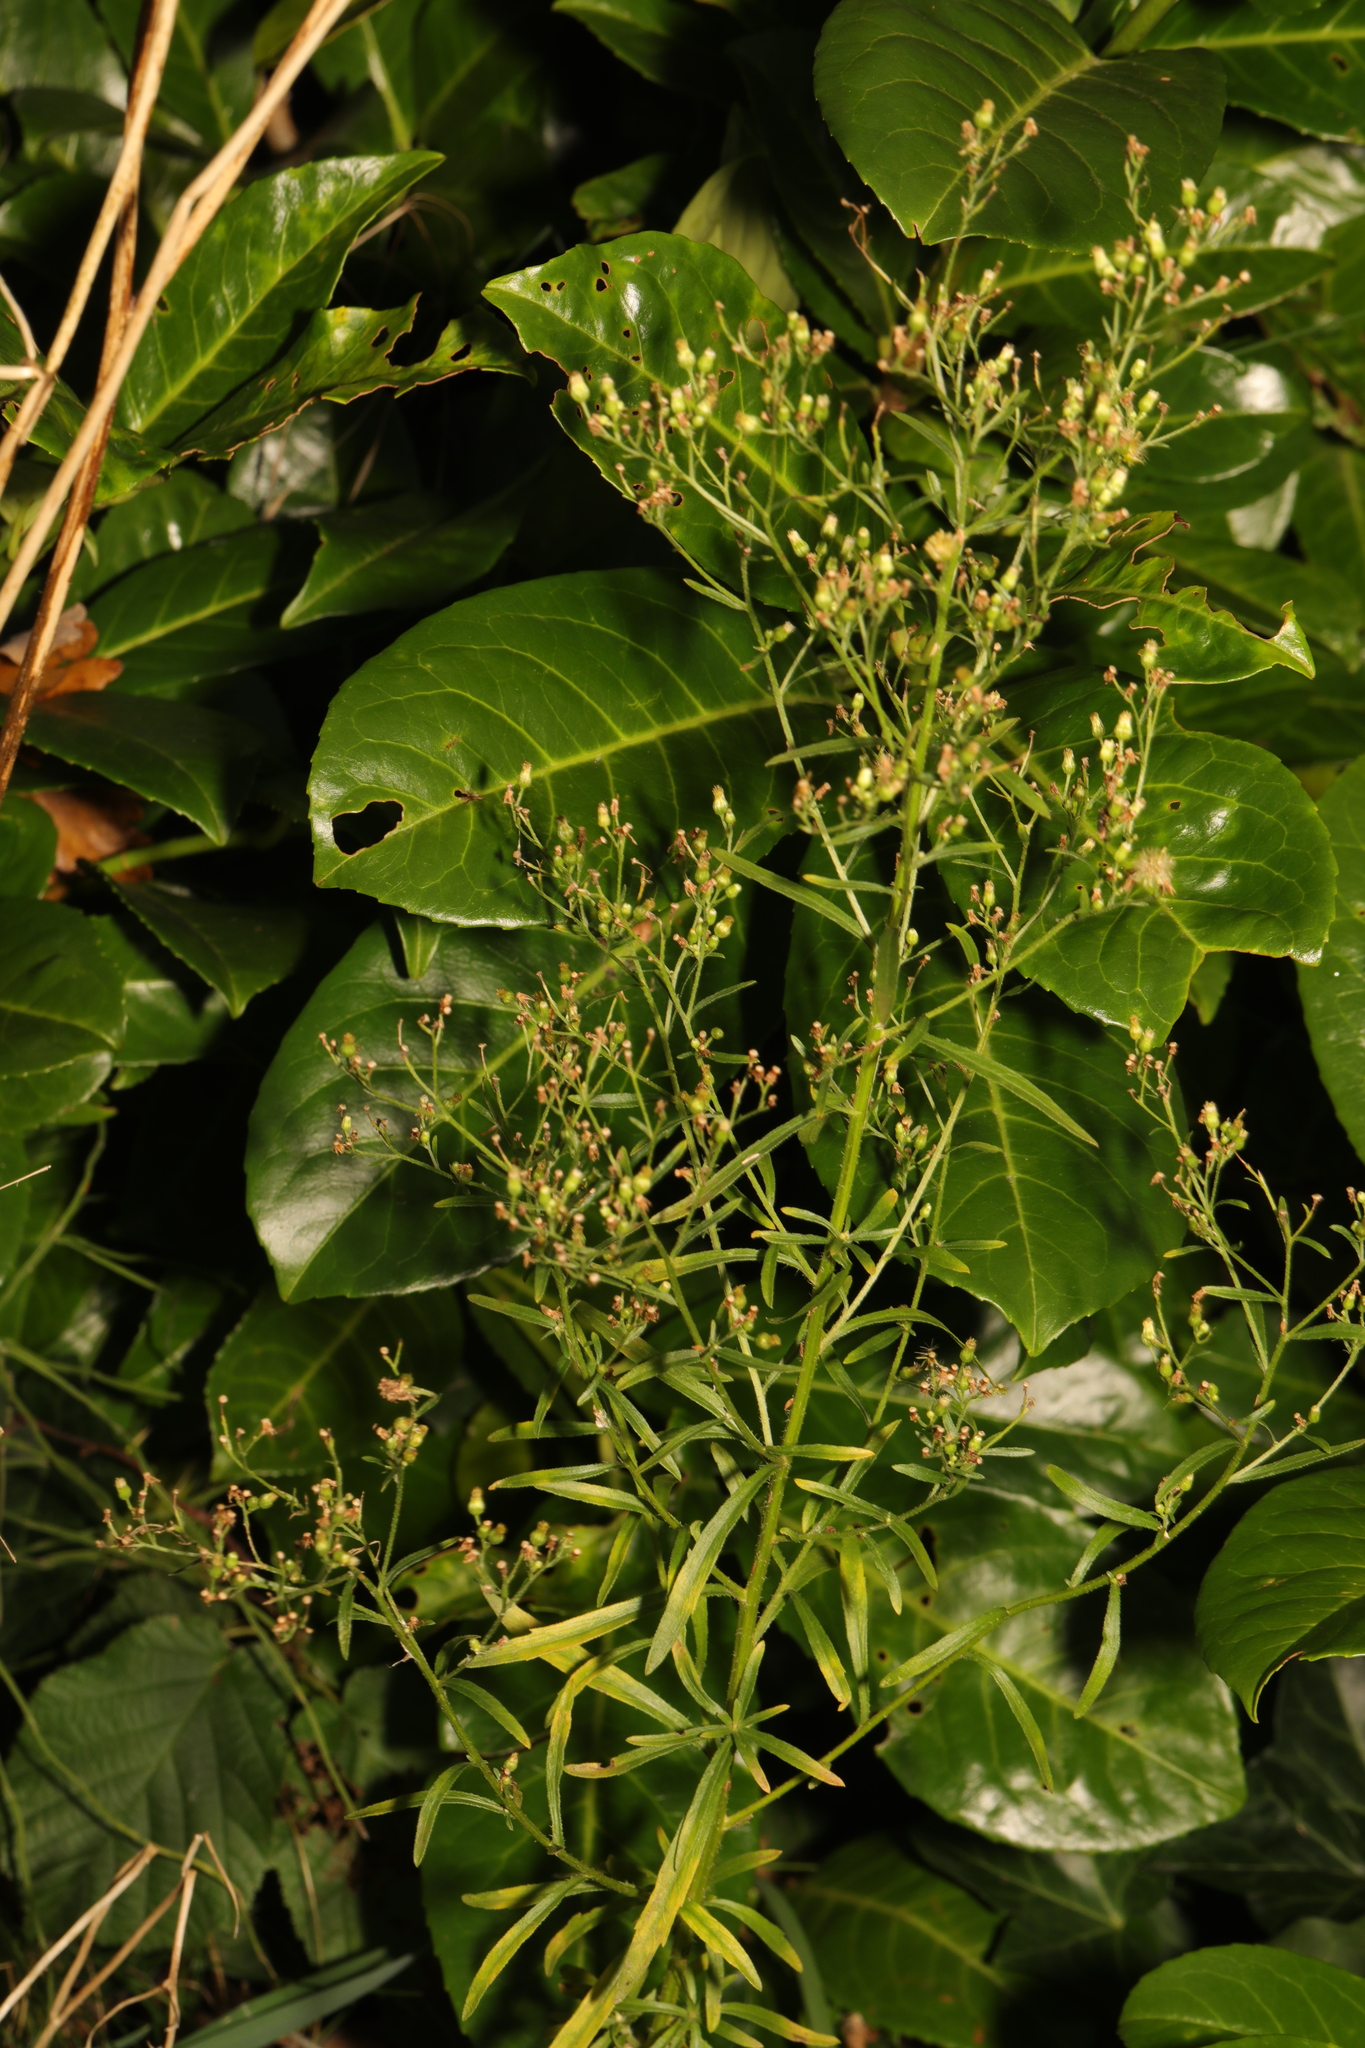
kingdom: Plantae
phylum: Tracheophyta
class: Magnoliopsida
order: Asterales
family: Asteraceae
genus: Erigeron
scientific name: Erigeron canadensis
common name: Canadian fleabane
